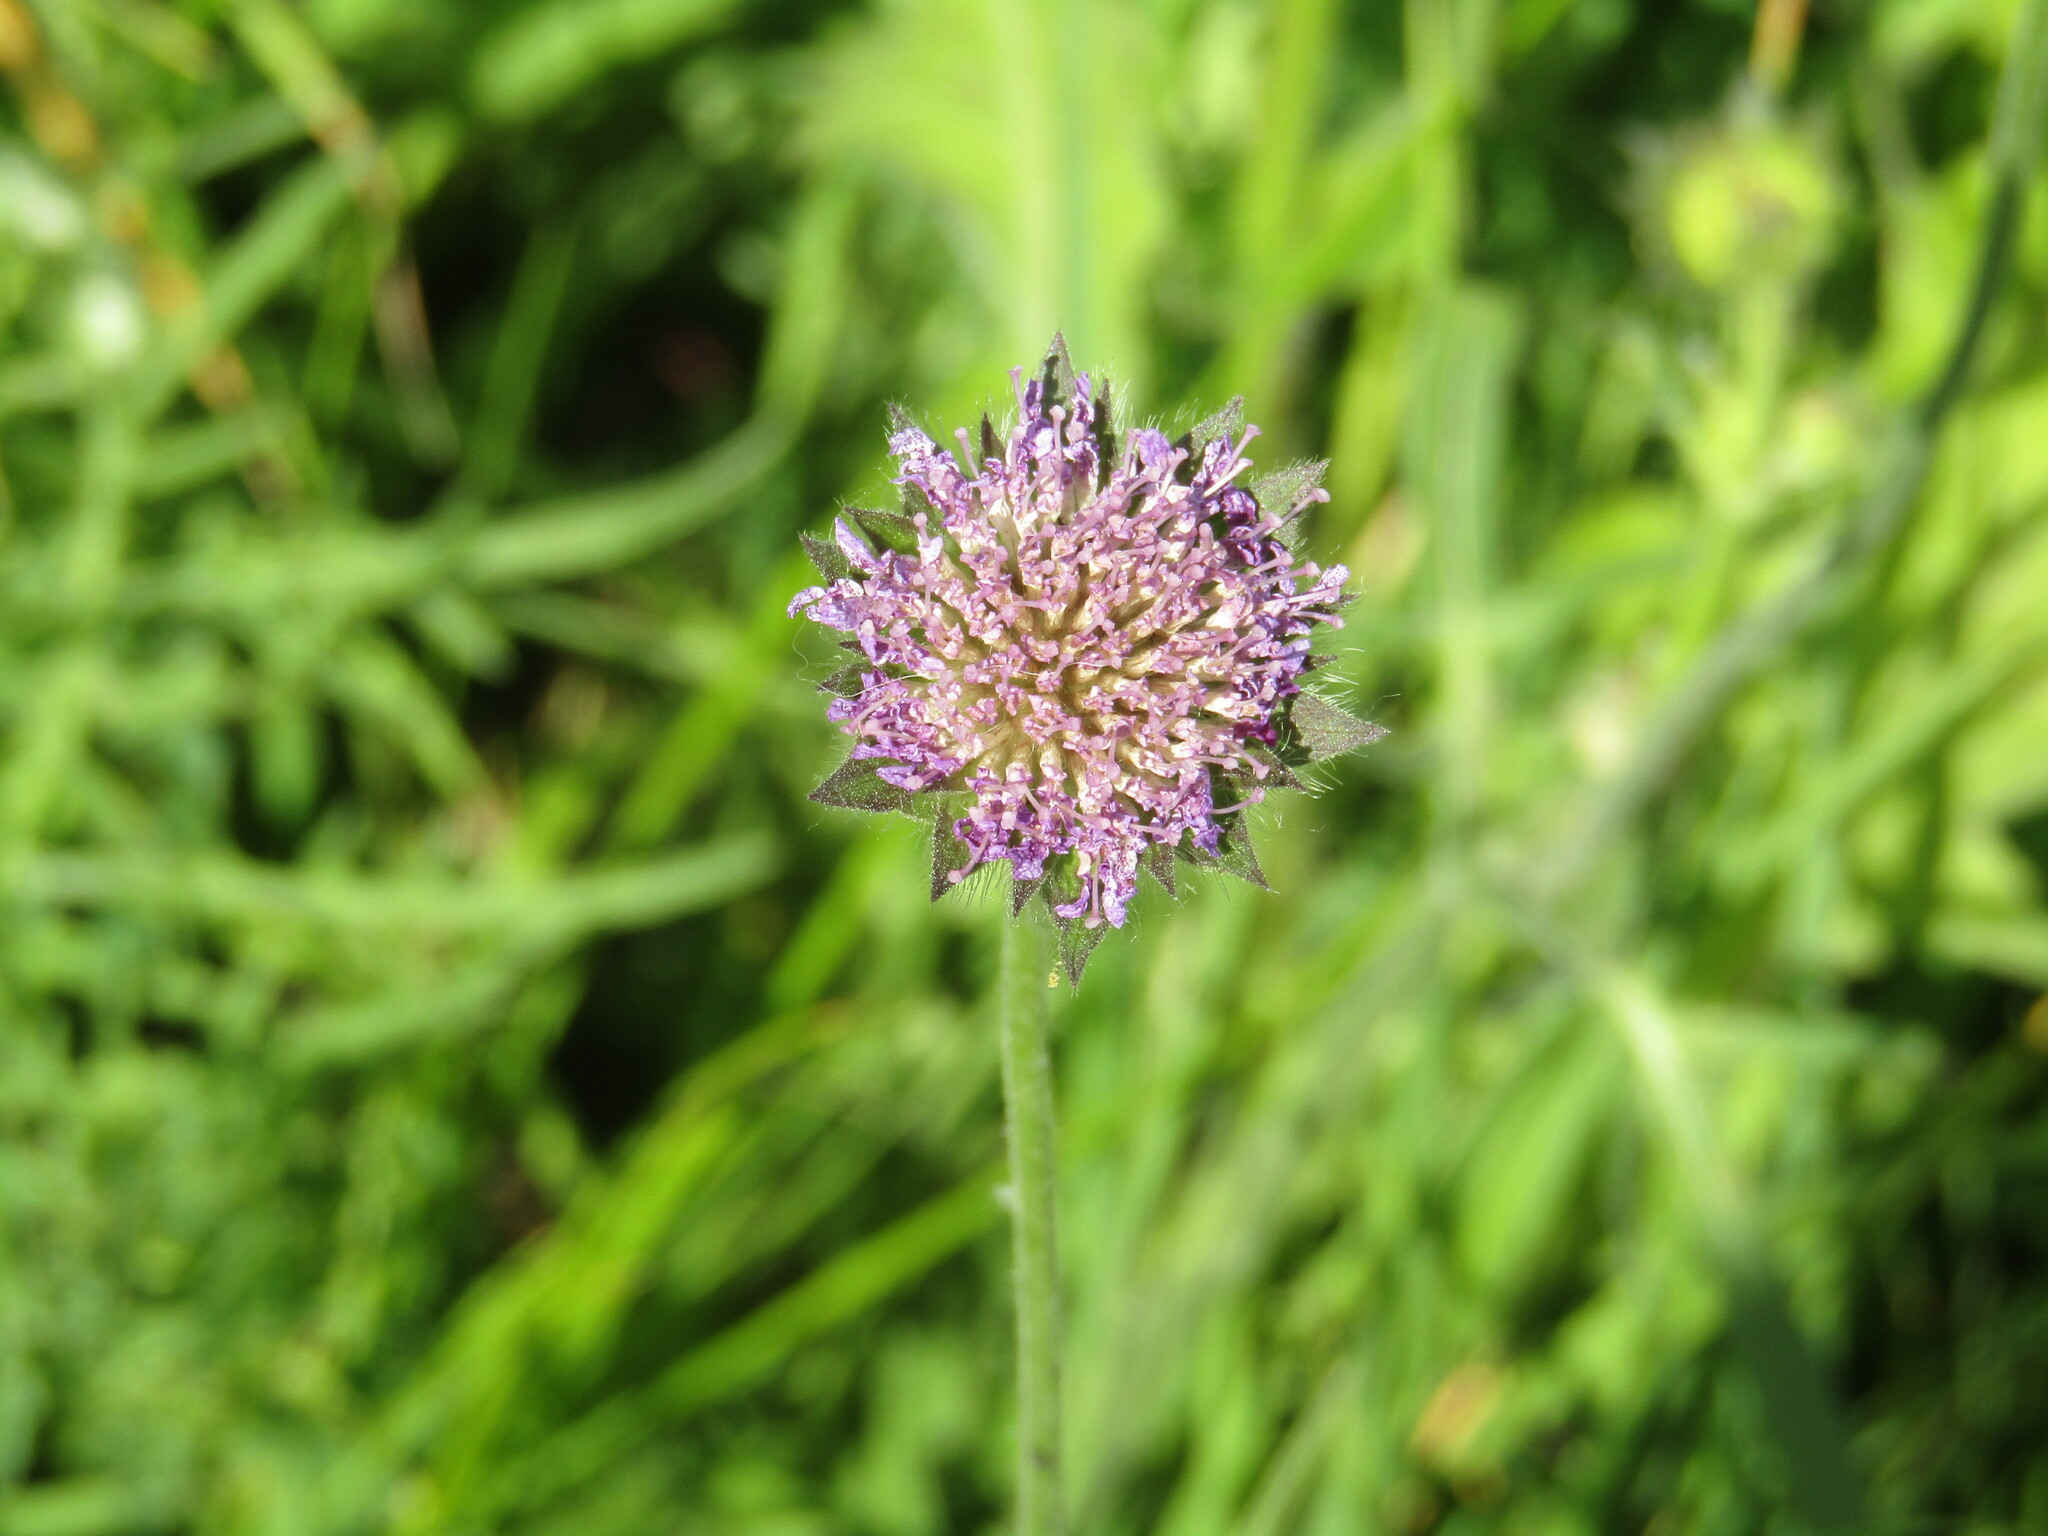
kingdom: Plantae
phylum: Tracheophyta
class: Magnoliopsida
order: Dipsacales
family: Caprifoliaceae
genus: Knautia
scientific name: Knautia arvensis
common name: Field scabiosa
